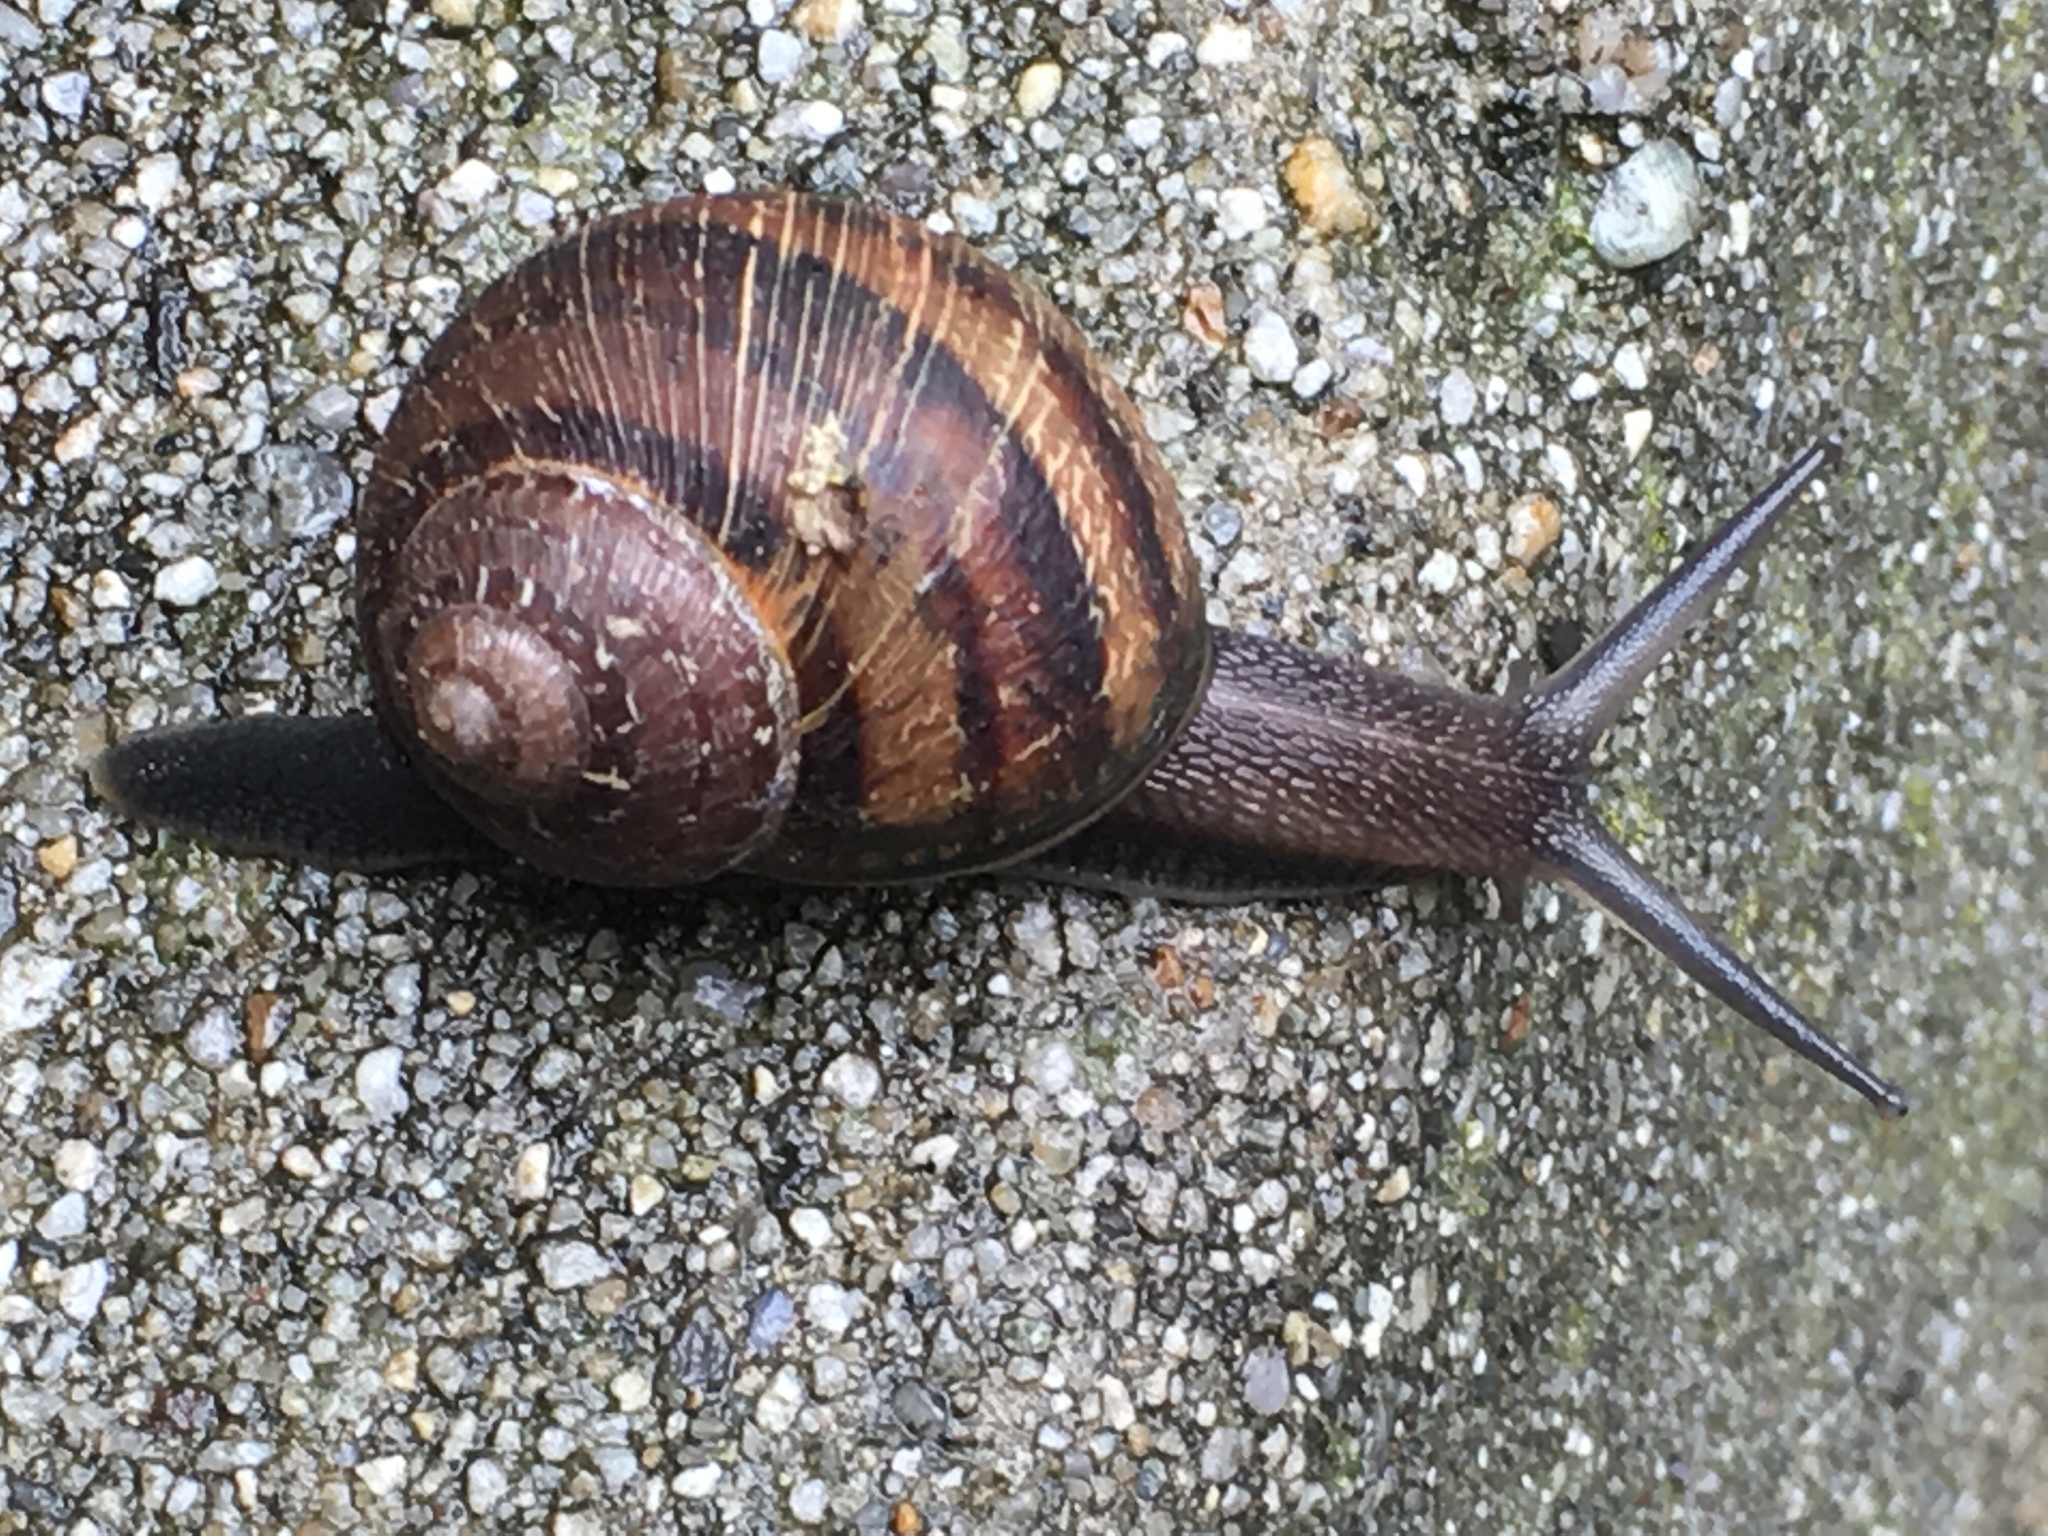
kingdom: Animalia
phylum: Mollusca
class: Gastropoda
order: Stylommatophora
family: Helicidae
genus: Cornu
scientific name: Cornu aspersum
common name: Brown garden snail
